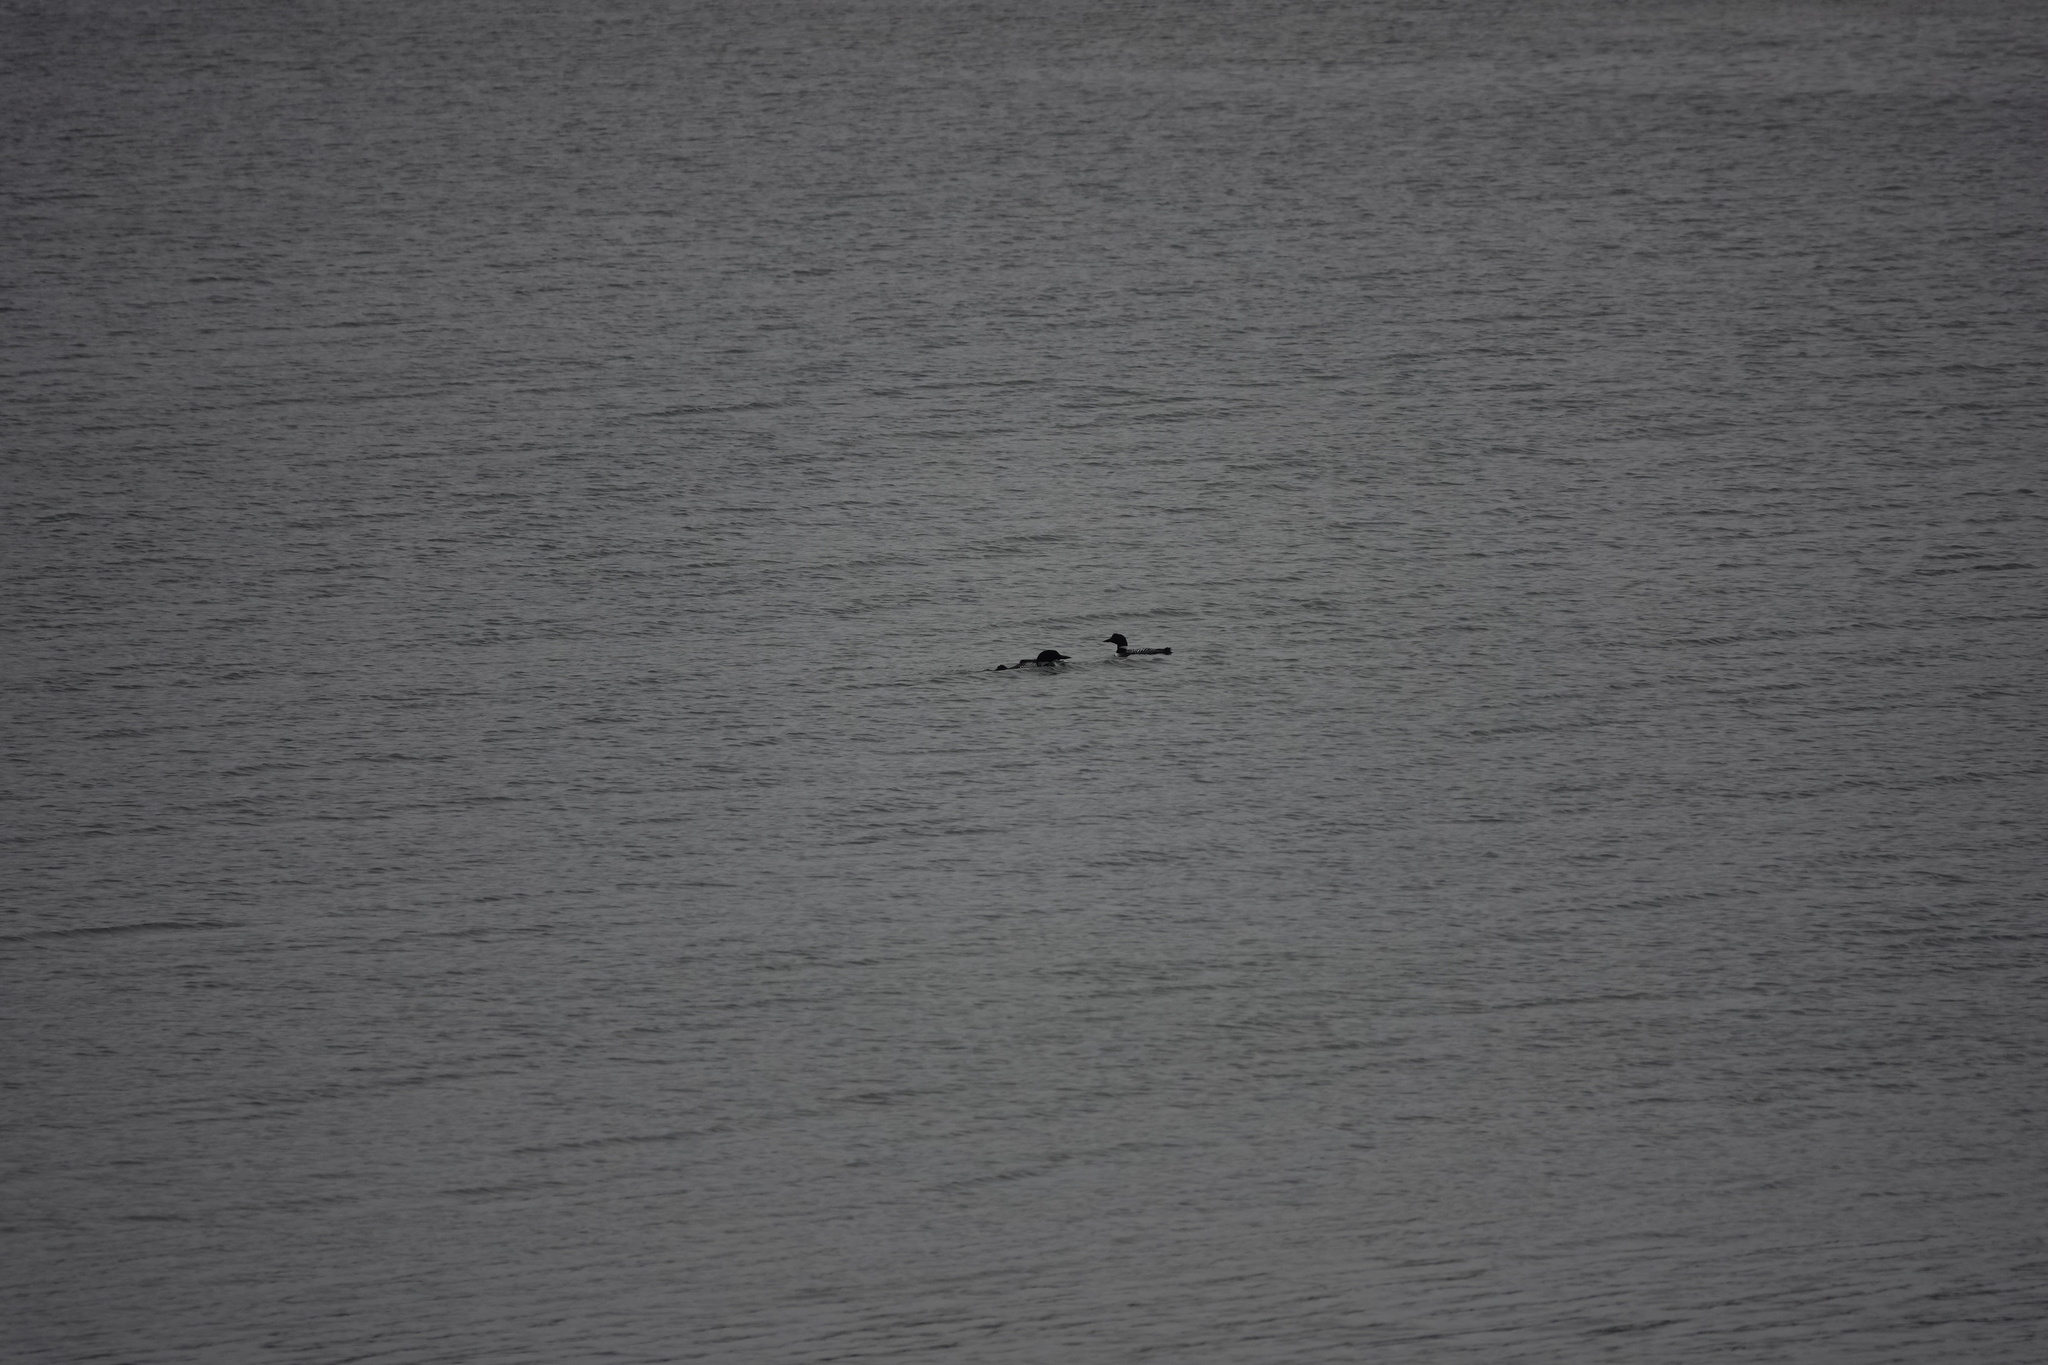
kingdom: Animalia
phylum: Chordata
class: Aves
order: Gaviiformes
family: Gaviidae
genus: Gavia
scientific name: Gavia immer
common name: Common loon
